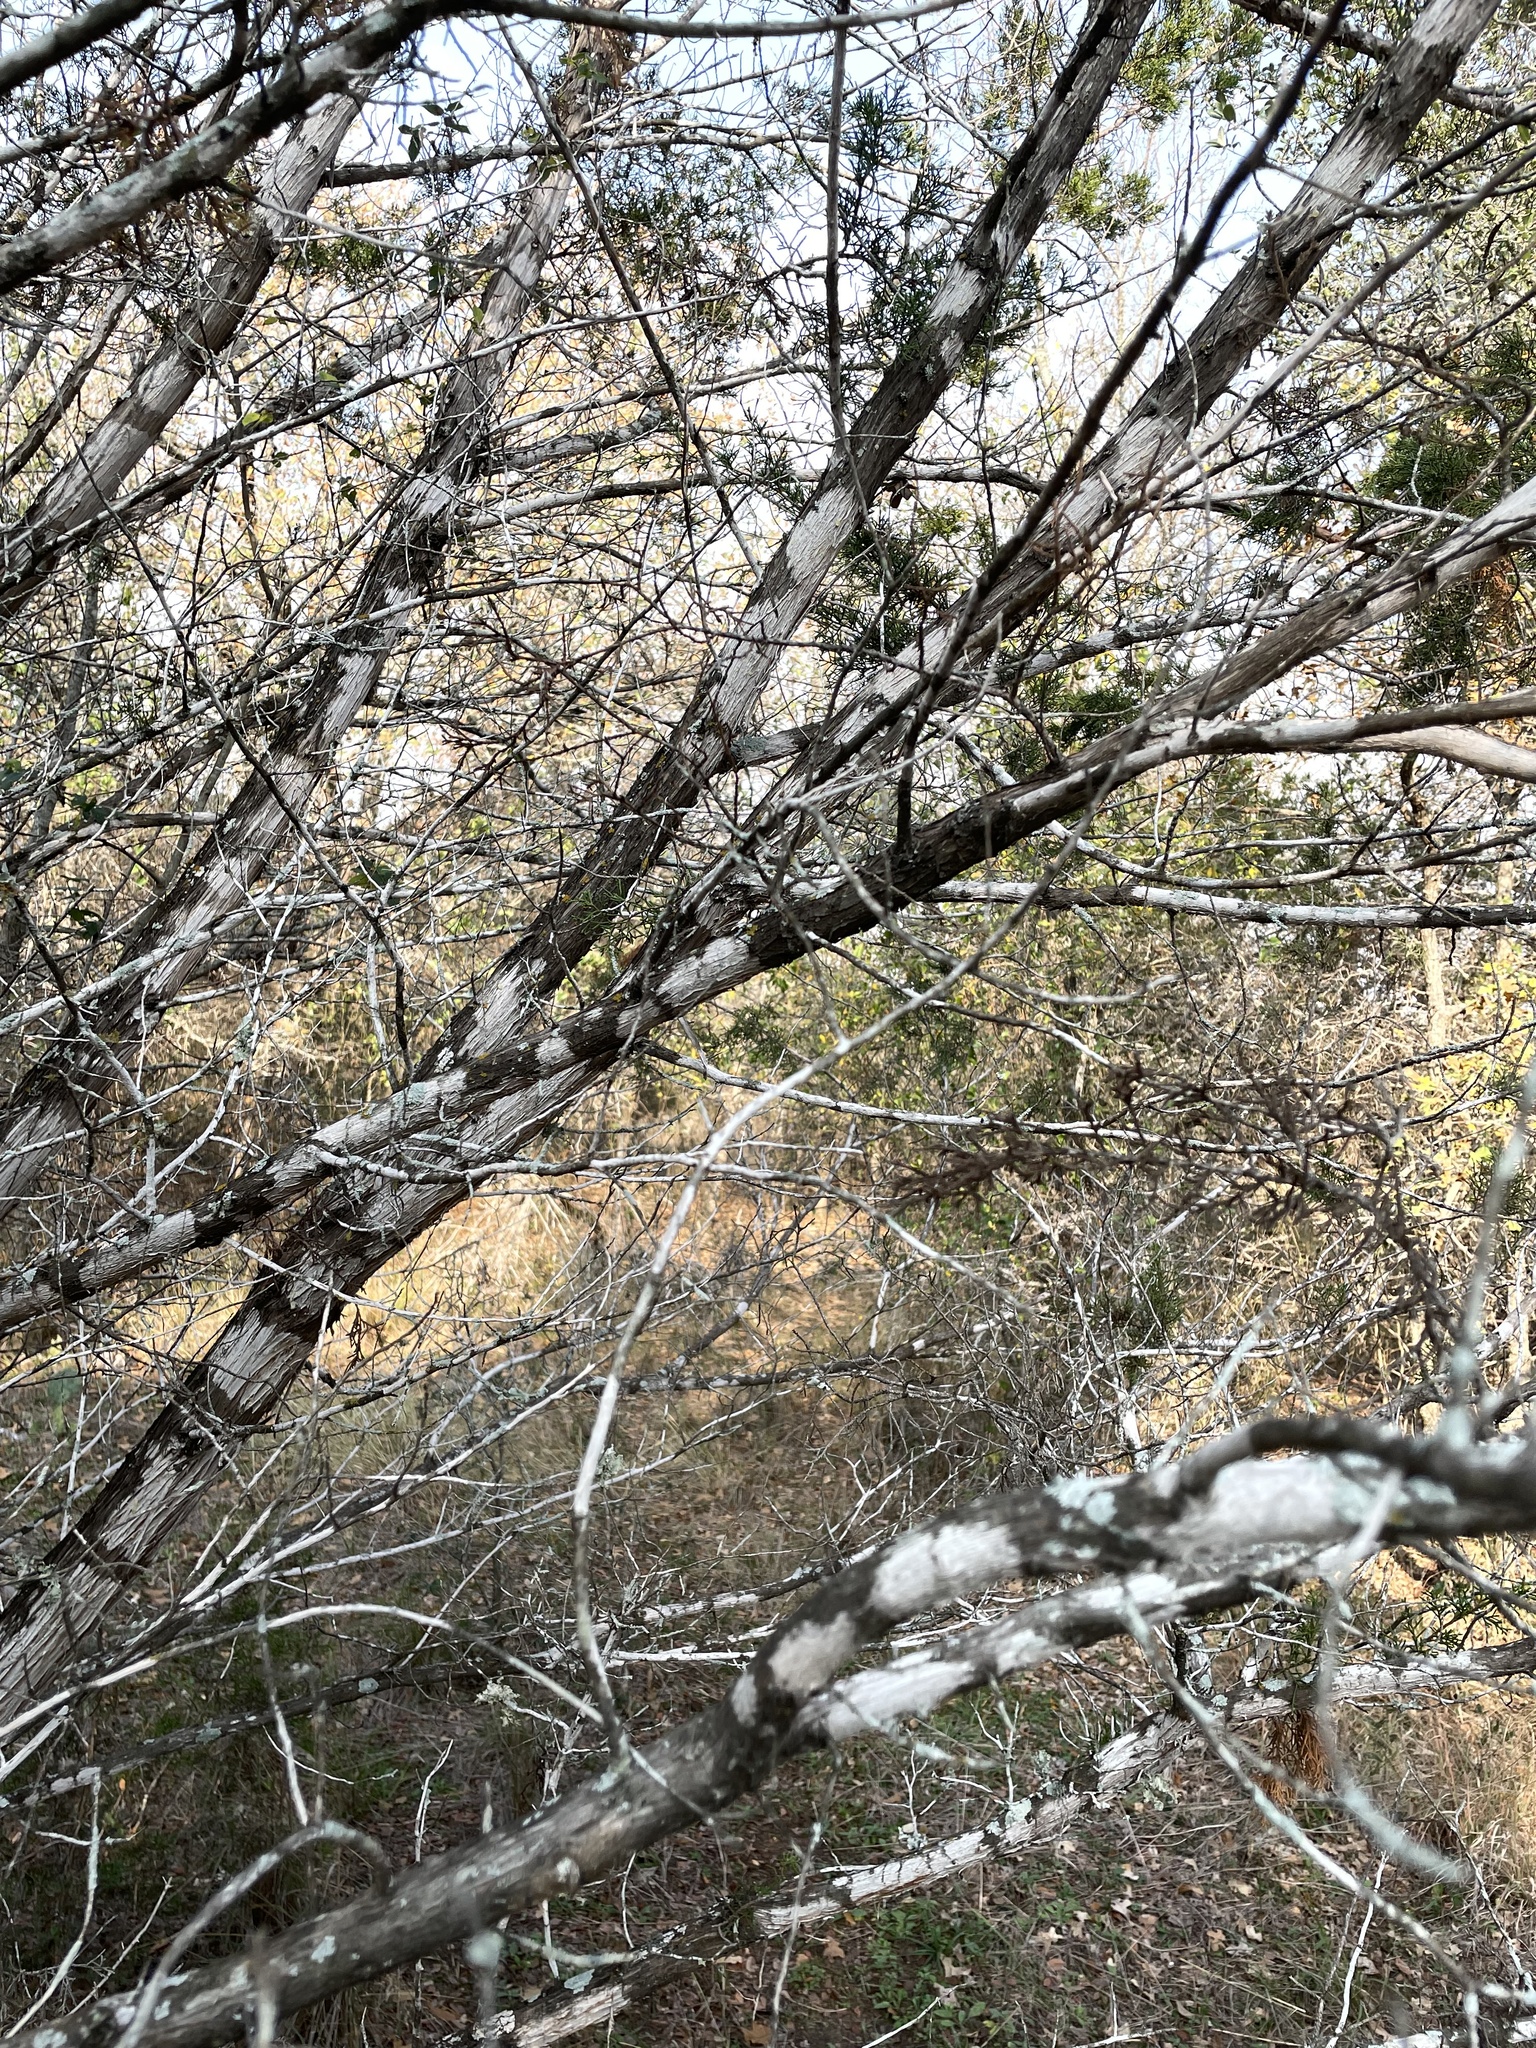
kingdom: Fungi
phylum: Ascomycota
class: Lecanoromycetes
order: Ostropales
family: Stictidaceae
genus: Robergea
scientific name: Robergea
